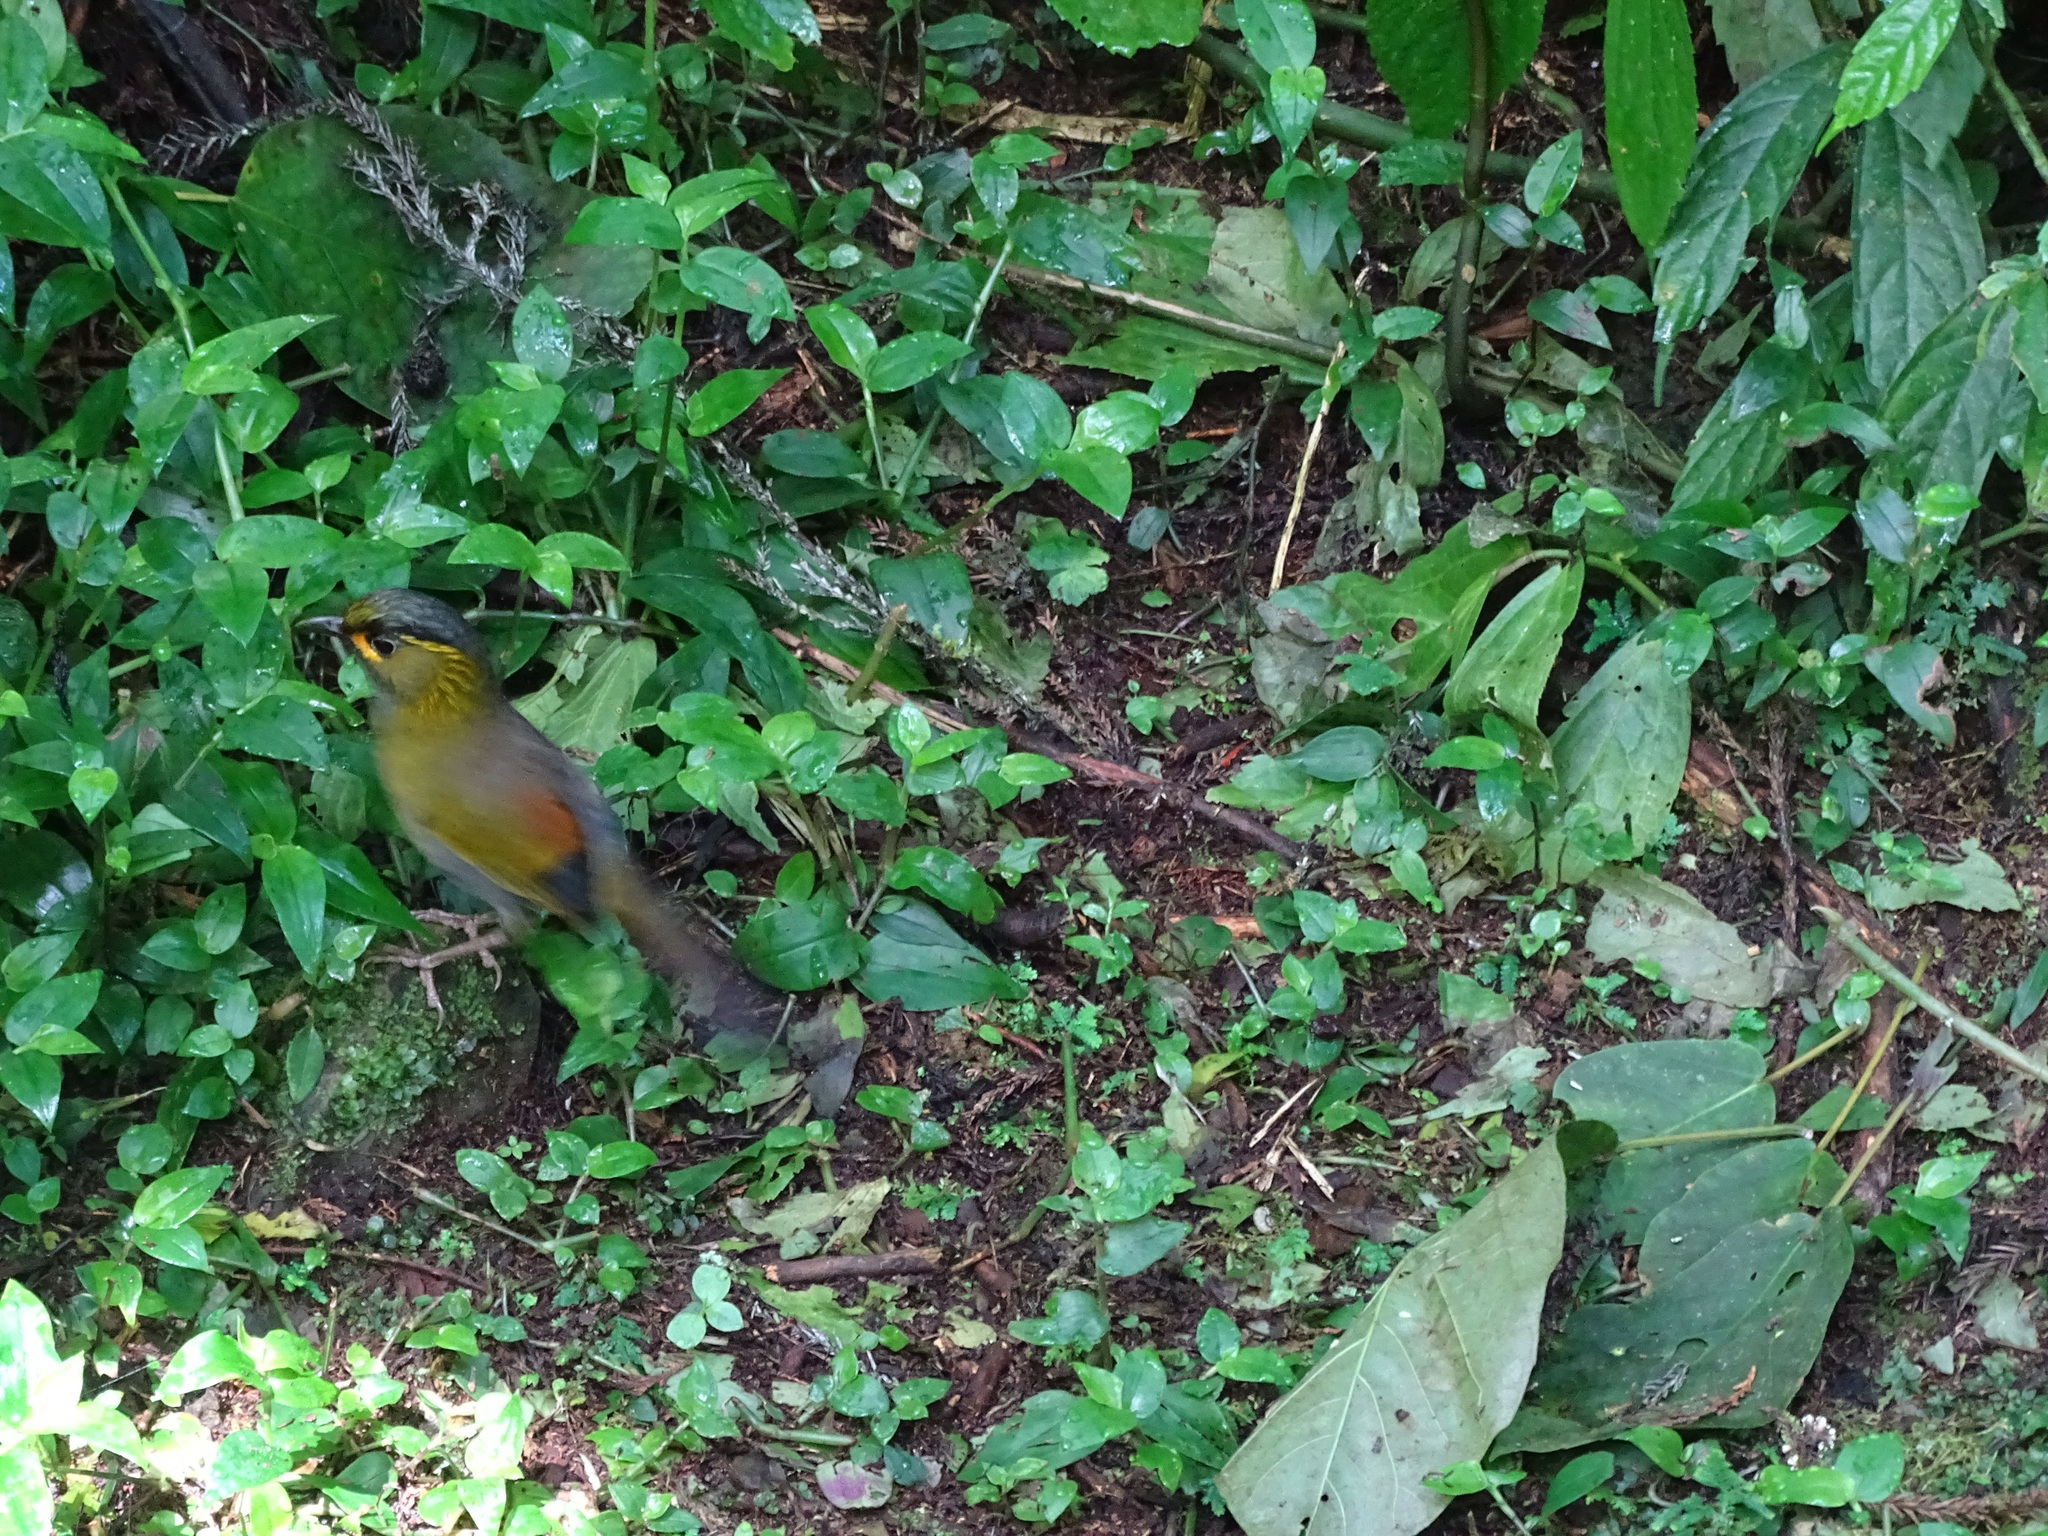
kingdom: Animalia
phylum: Chordata
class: Aves
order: Passeriformes
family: Leiothrichidae
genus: Liocichla
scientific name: Liocichla steerii
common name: Steere's liocichla
